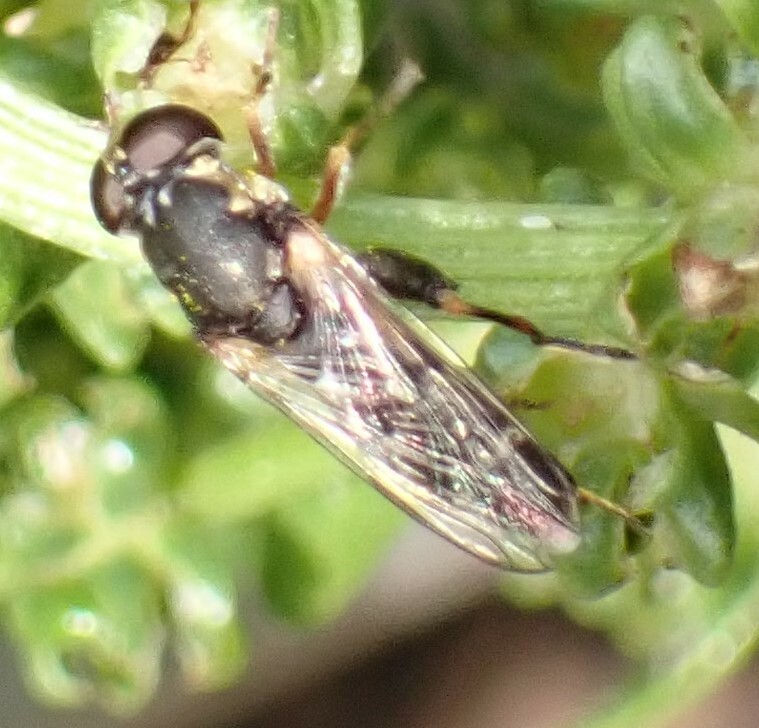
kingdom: Animalia
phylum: Arthropoda
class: Insecta
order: Diptera
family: Syrphidae
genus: Syritta
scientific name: Syritta pipiens
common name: Hover fly
